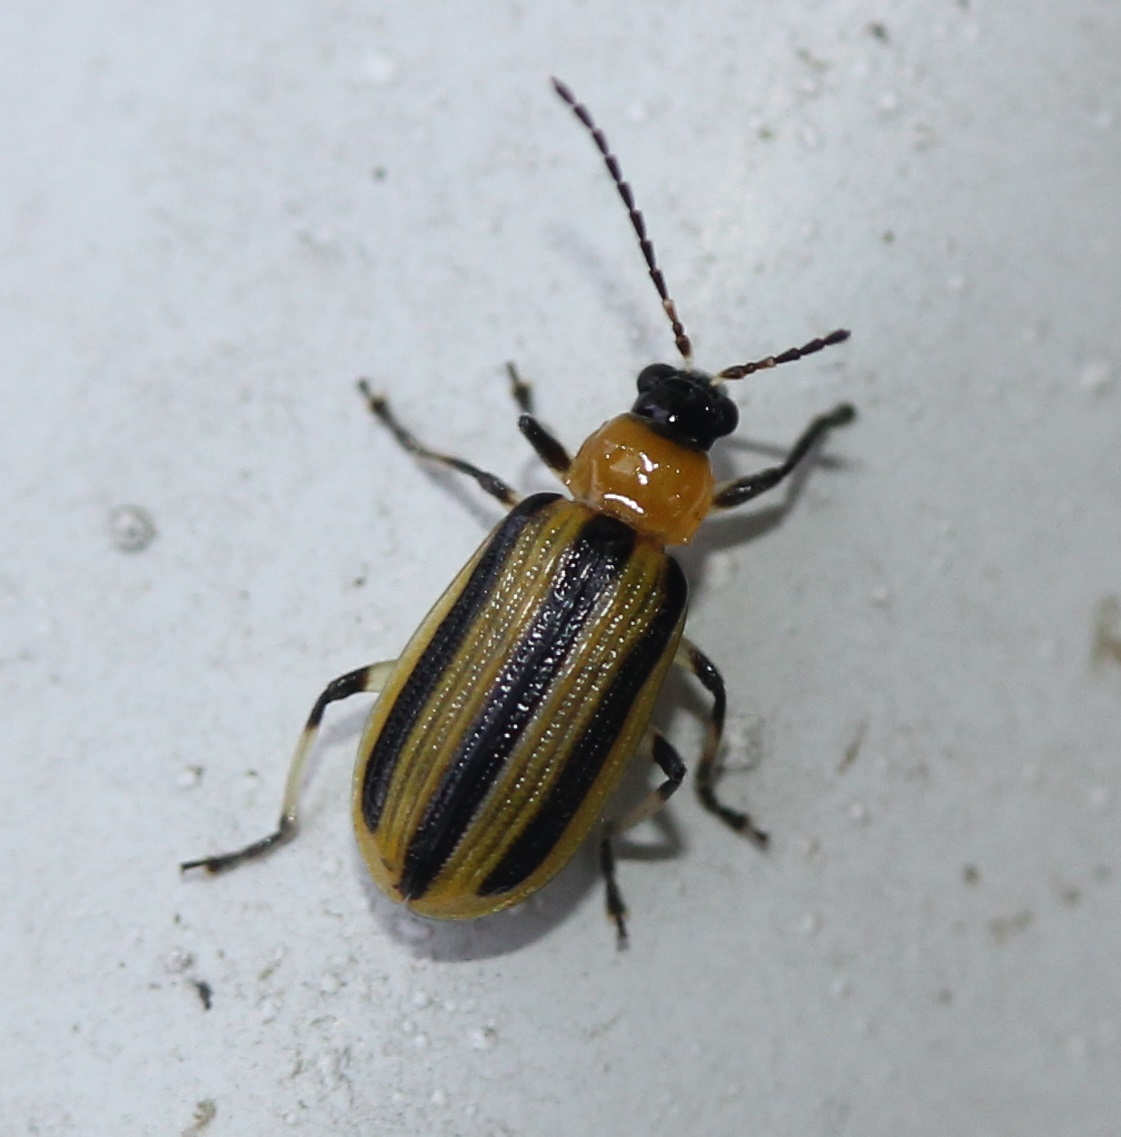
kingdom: Animalia
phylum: Arthropoda
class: Insecta
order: Coleoptera
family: Chrysomelidae
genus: Acalymma
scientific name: Acalymma vittatum
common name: Striped cucumber beetle
